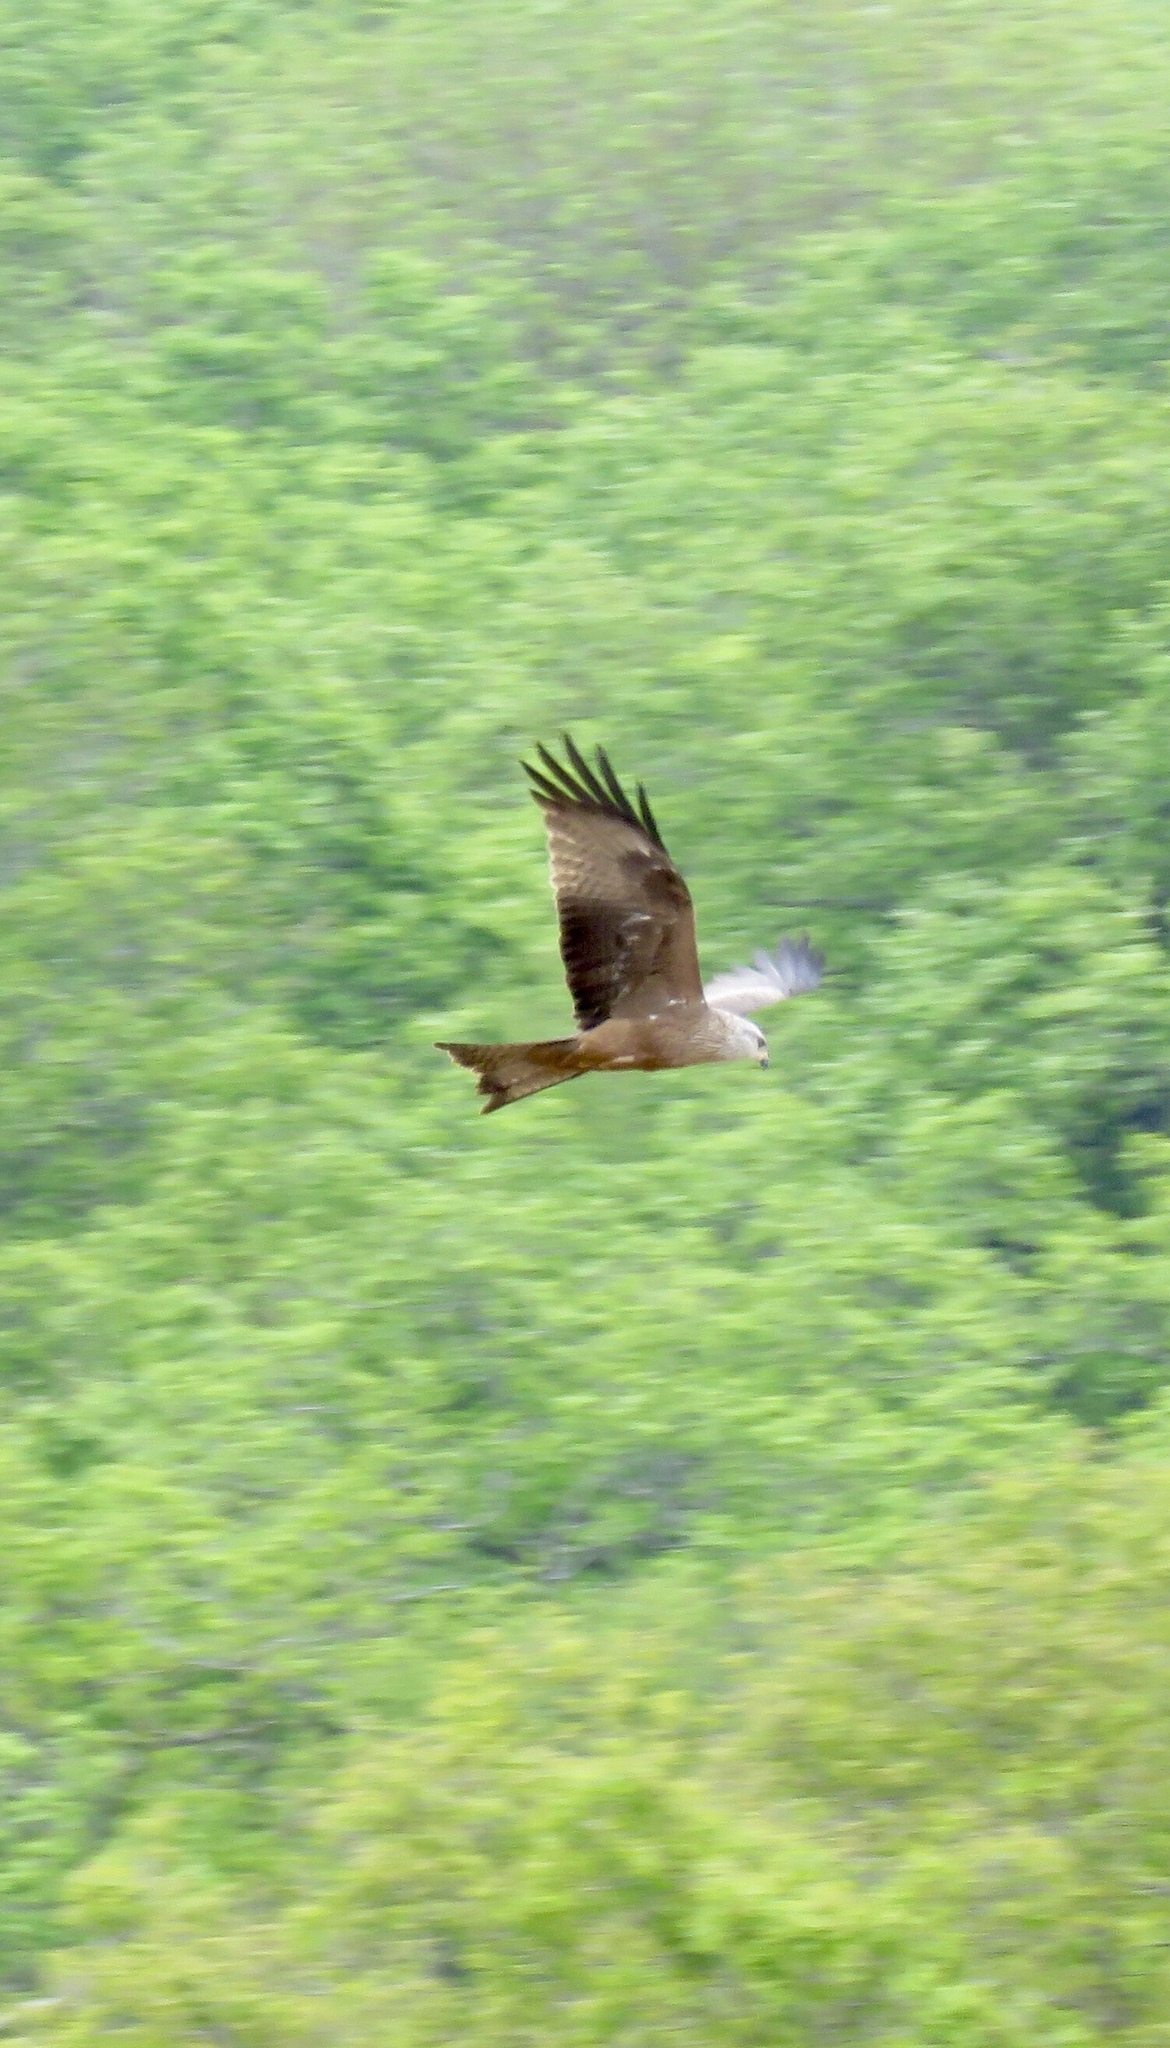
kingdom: Animalia
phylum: Chordata
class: Aves
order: Accipitriformes
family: Accipitridae
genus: Milvus
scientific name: Milvus migrans
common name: Black kite
